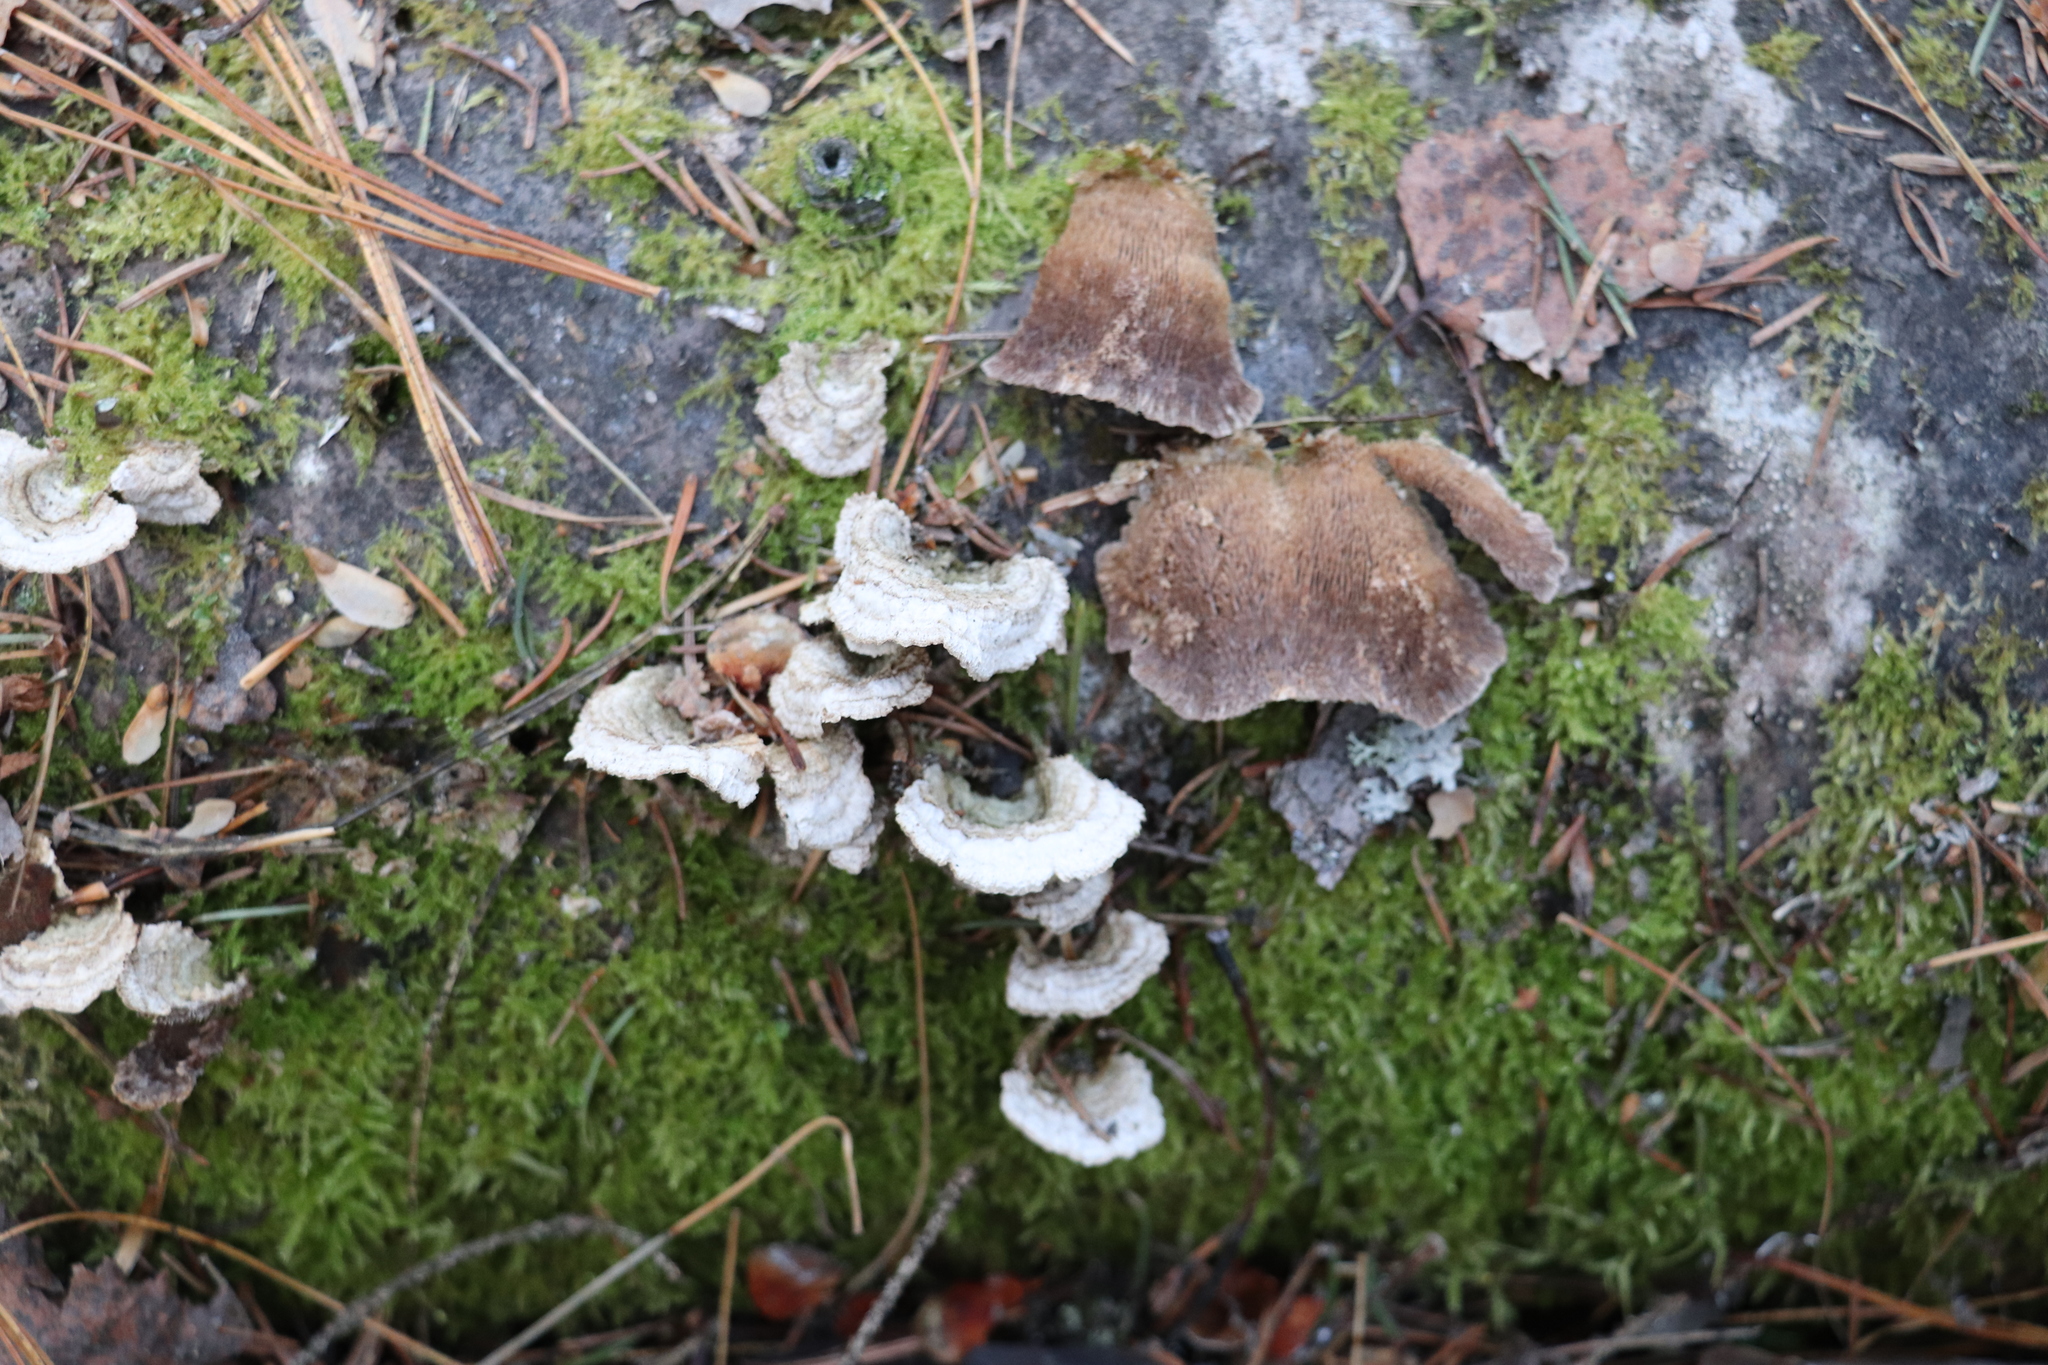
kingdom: Fungi
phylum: Basidiomycota
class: Agaricomycetes
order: Hymenochaetales
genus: Trichaptum
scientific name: Trichaptum fuscoviolaceum
